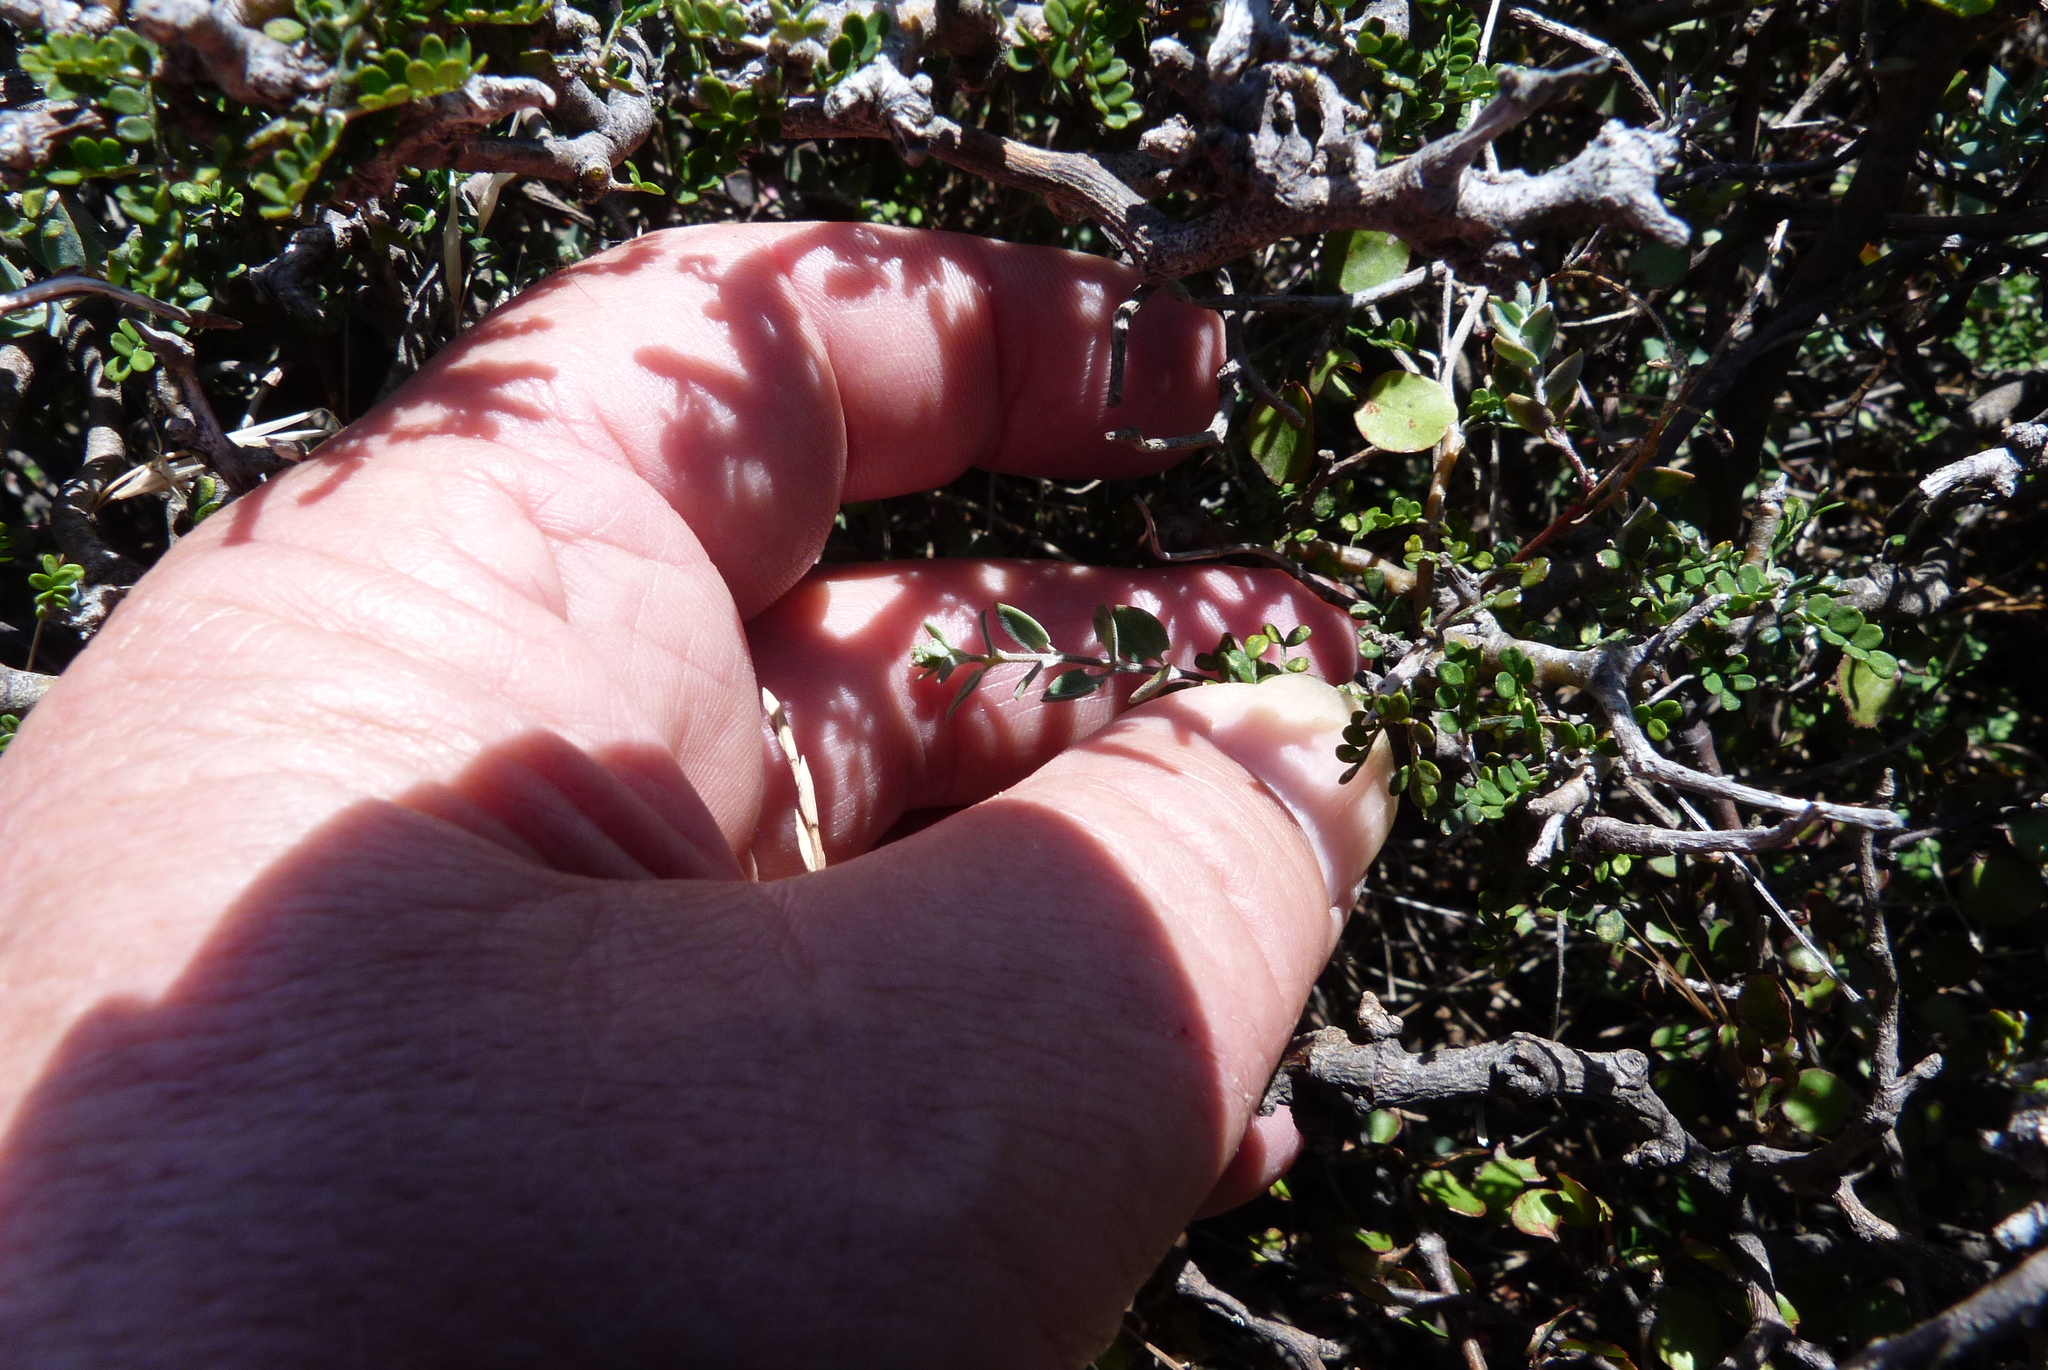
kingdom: Plantae
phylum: Tracheophyta
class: Magnoliopsida
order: Caryophyllales
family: Amaranthaceae
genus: Chenopodium
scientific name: Chenopodium nutans
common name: Climbing-saltbush
